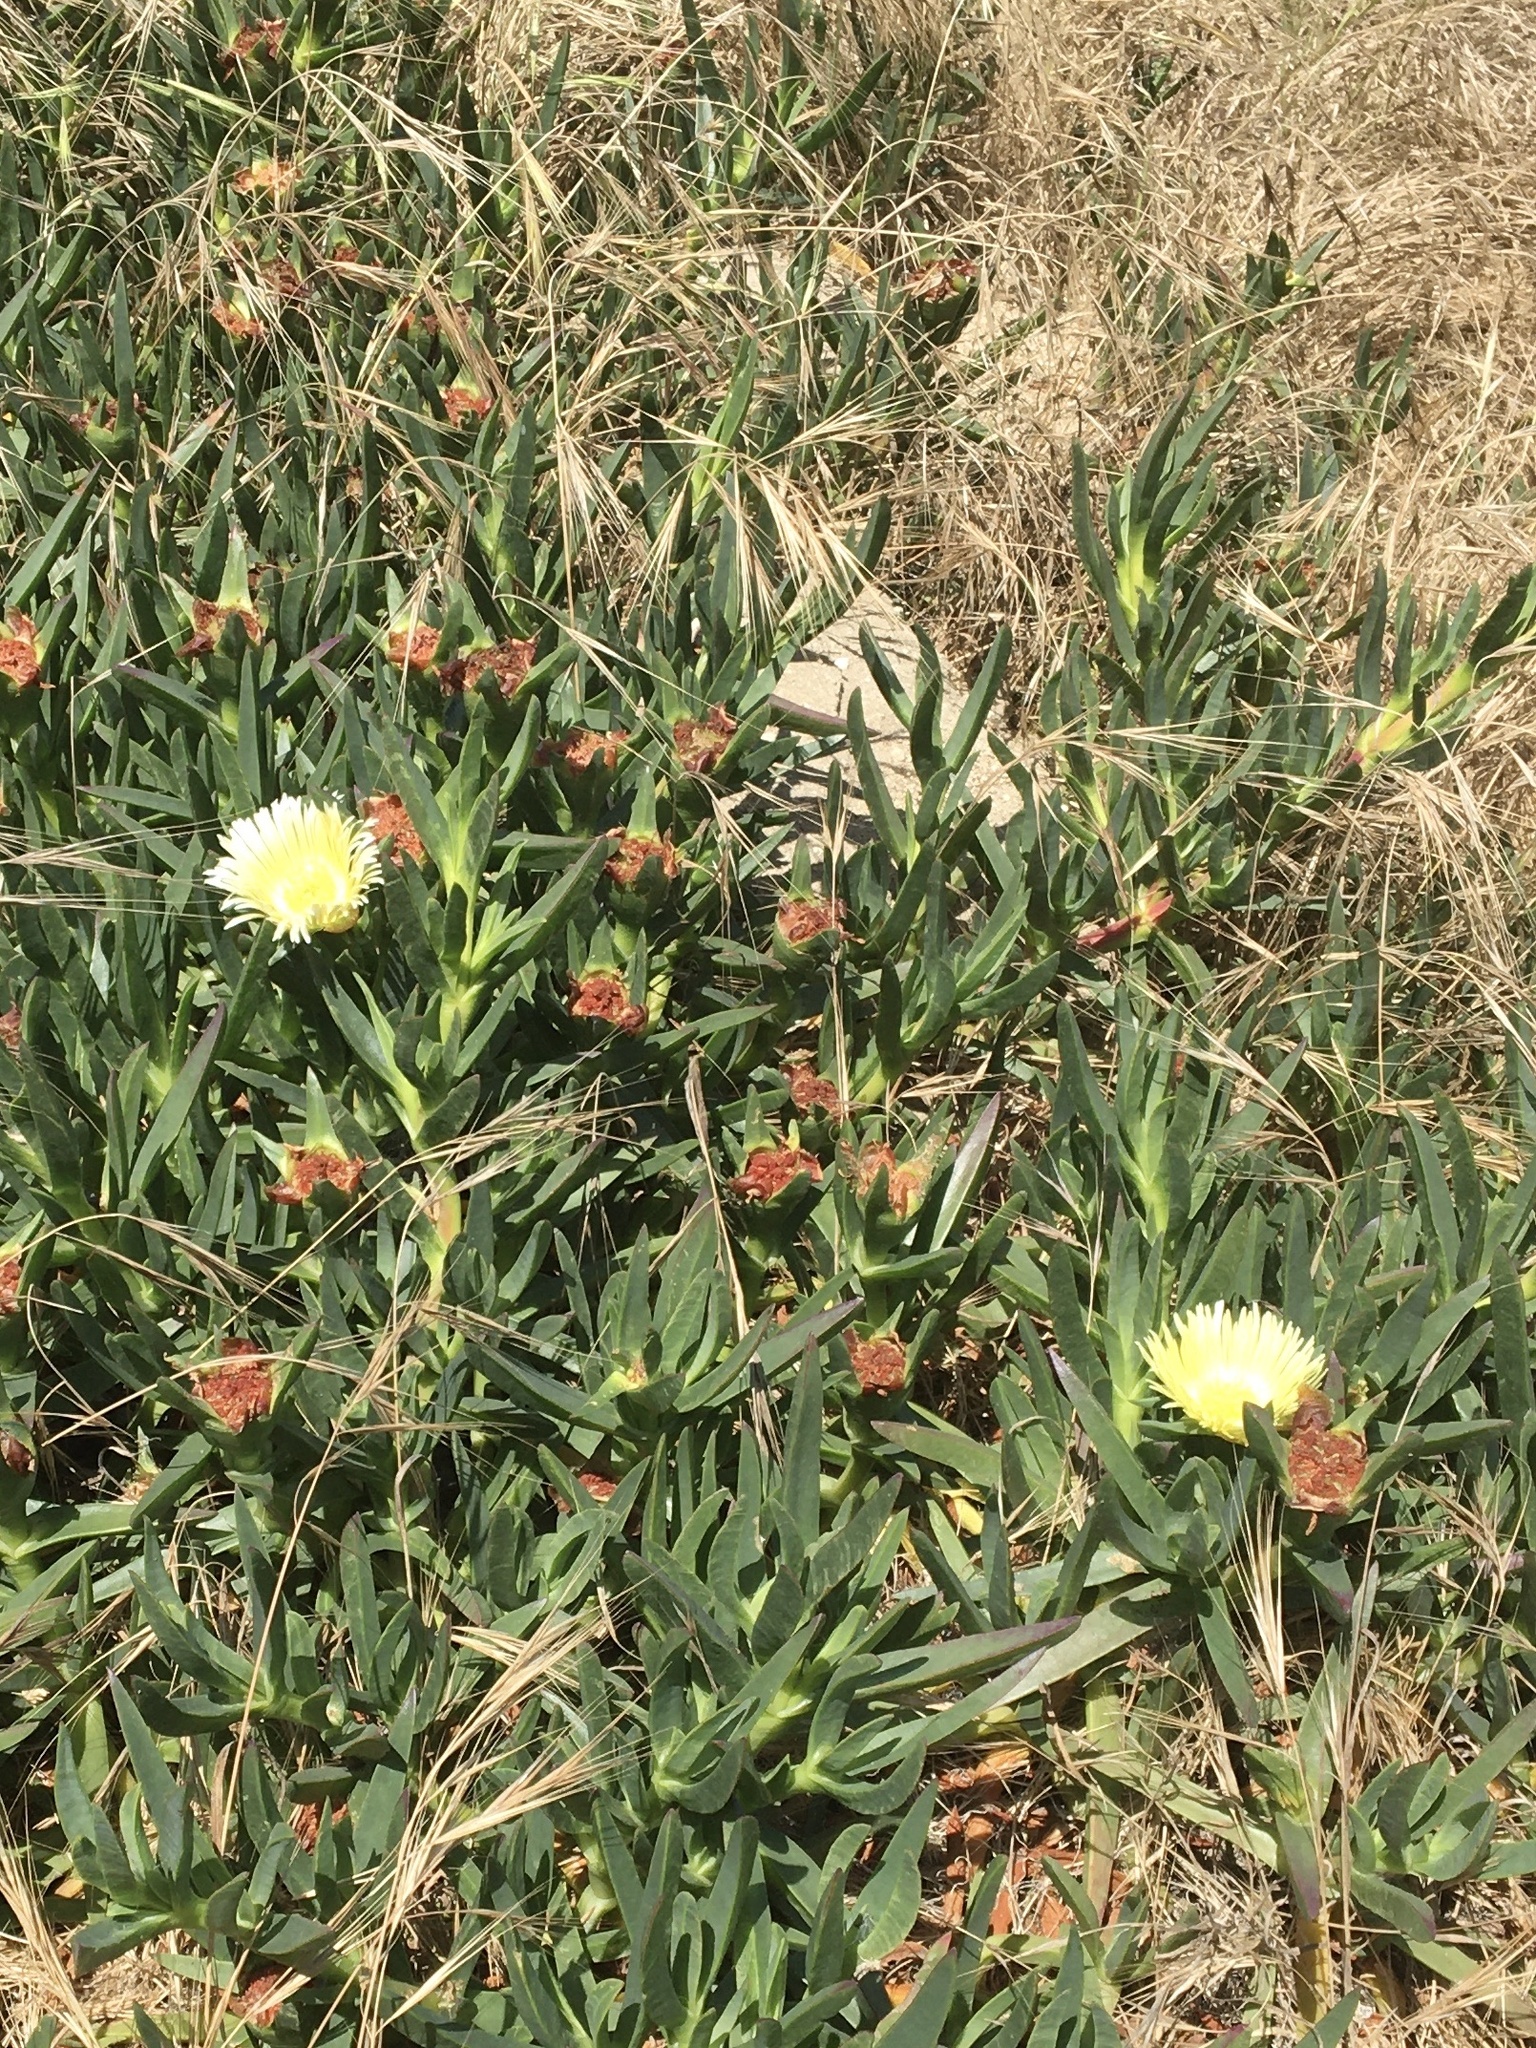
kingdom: Plantae
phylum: Tracheophyta
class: Magnoliopsida
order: Caryophyllales
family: Aizoaceae
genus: Carpobrotus
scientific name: Carpobrotus edulis
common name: Hottentot-fig
